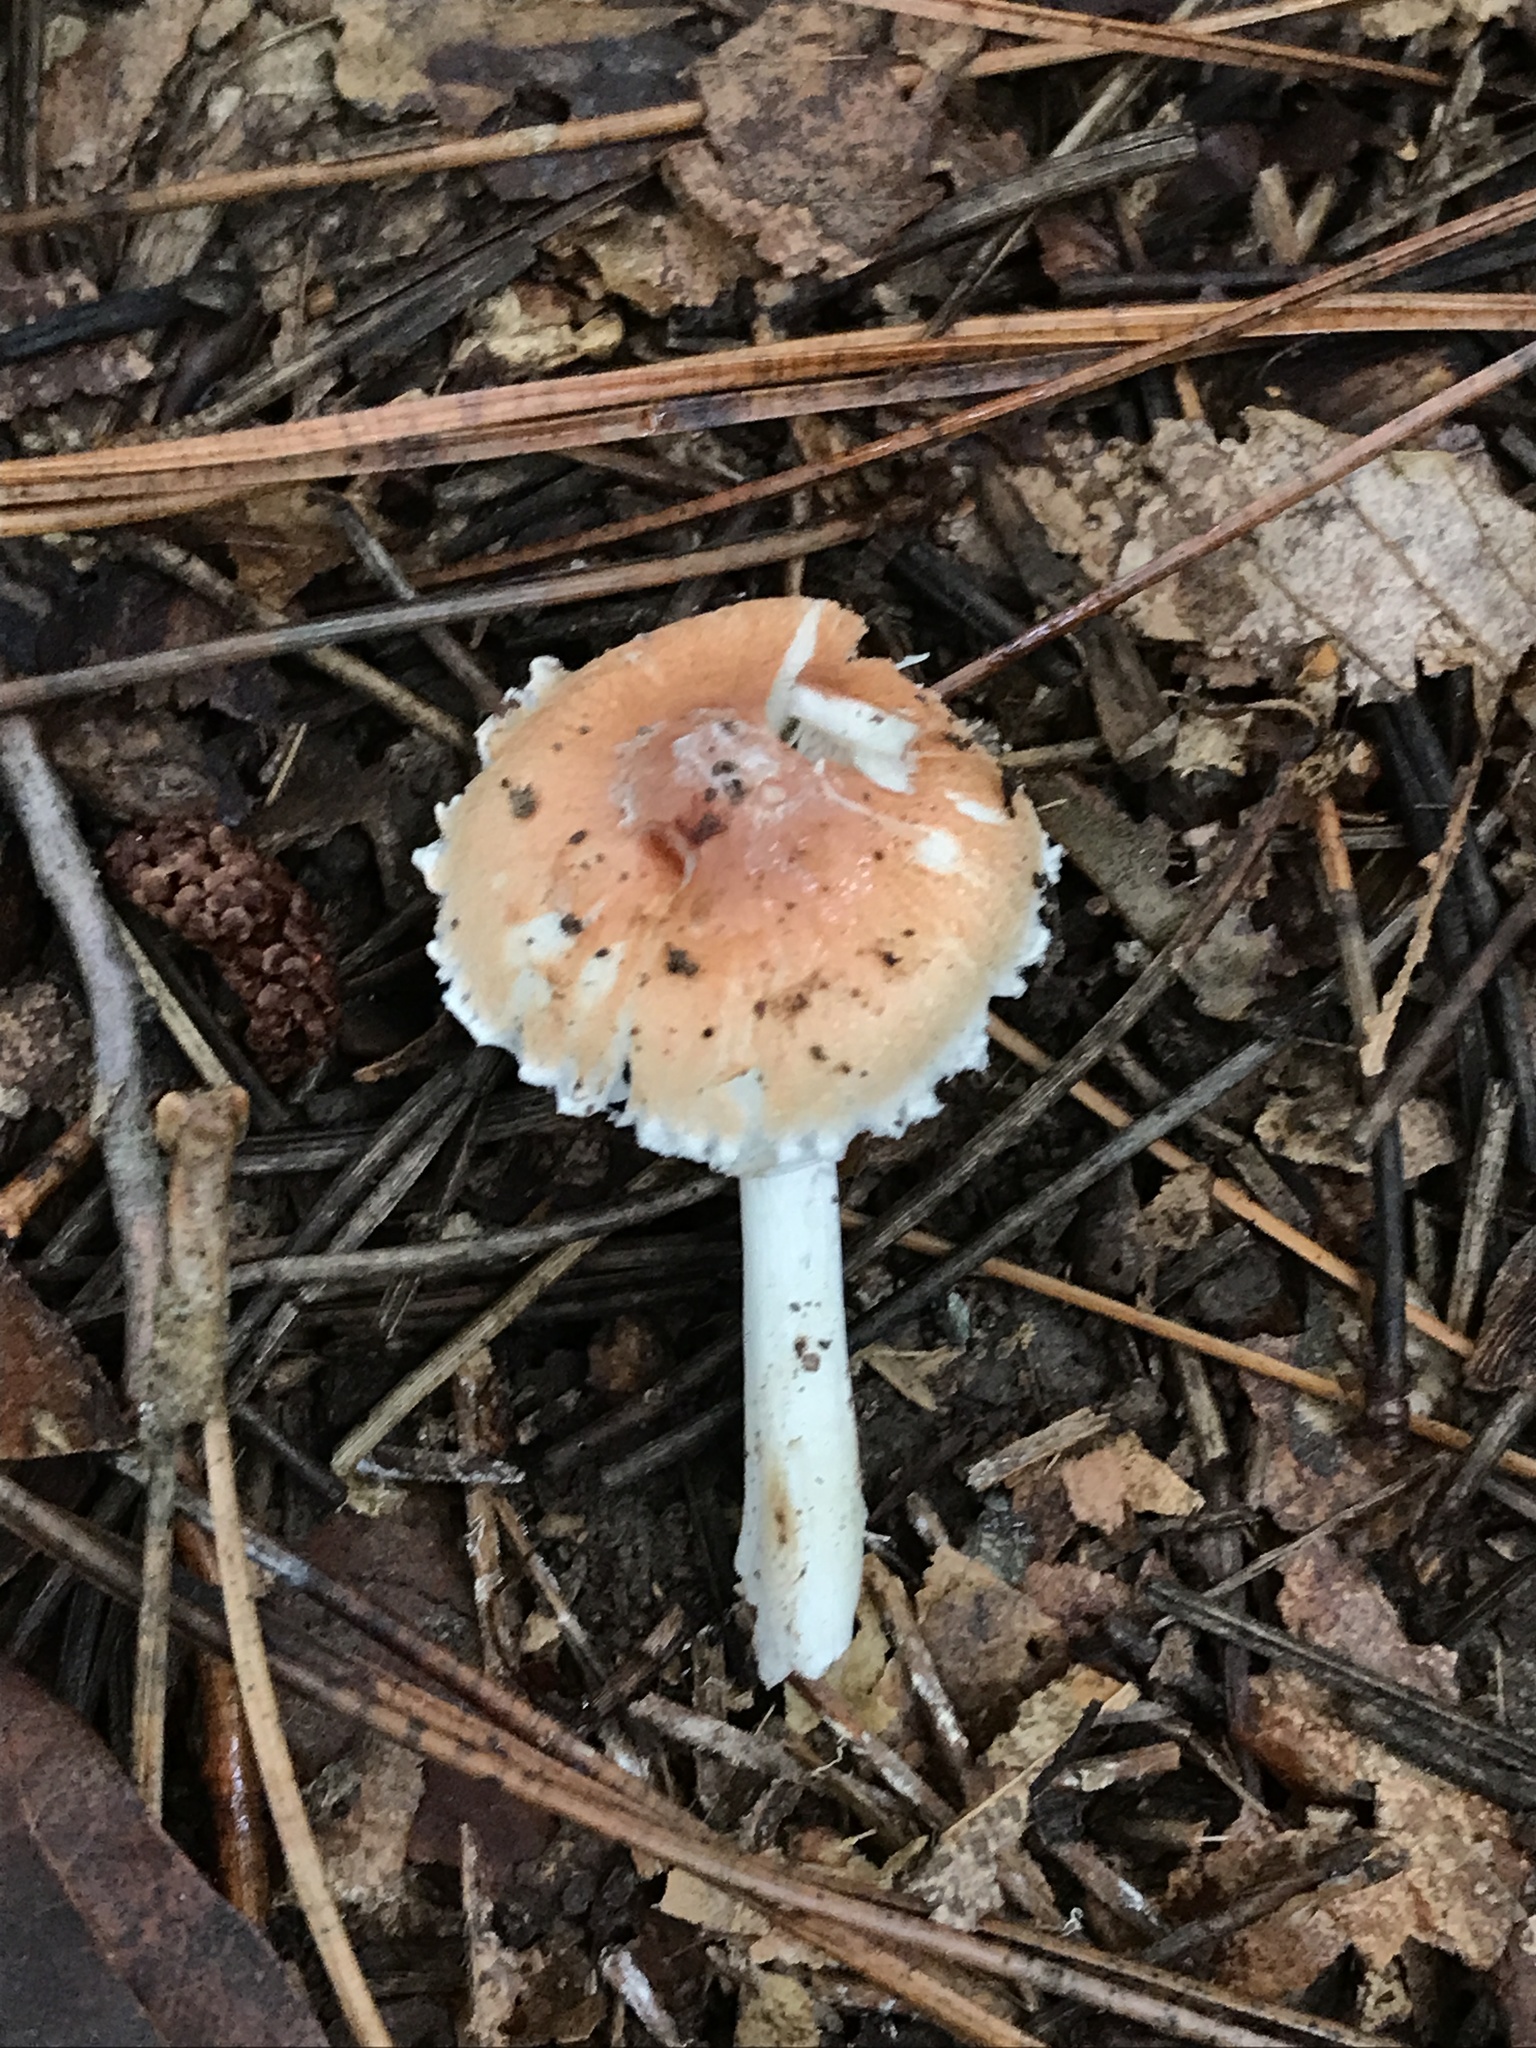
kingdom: Fungi
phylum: Basidiomycota
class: Agaricomycetes
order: Agaricales
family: Agaricaceae
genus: Leucoagaricus
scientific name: Leucoagaricus rubrotinctus
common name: Ruby dapperling
